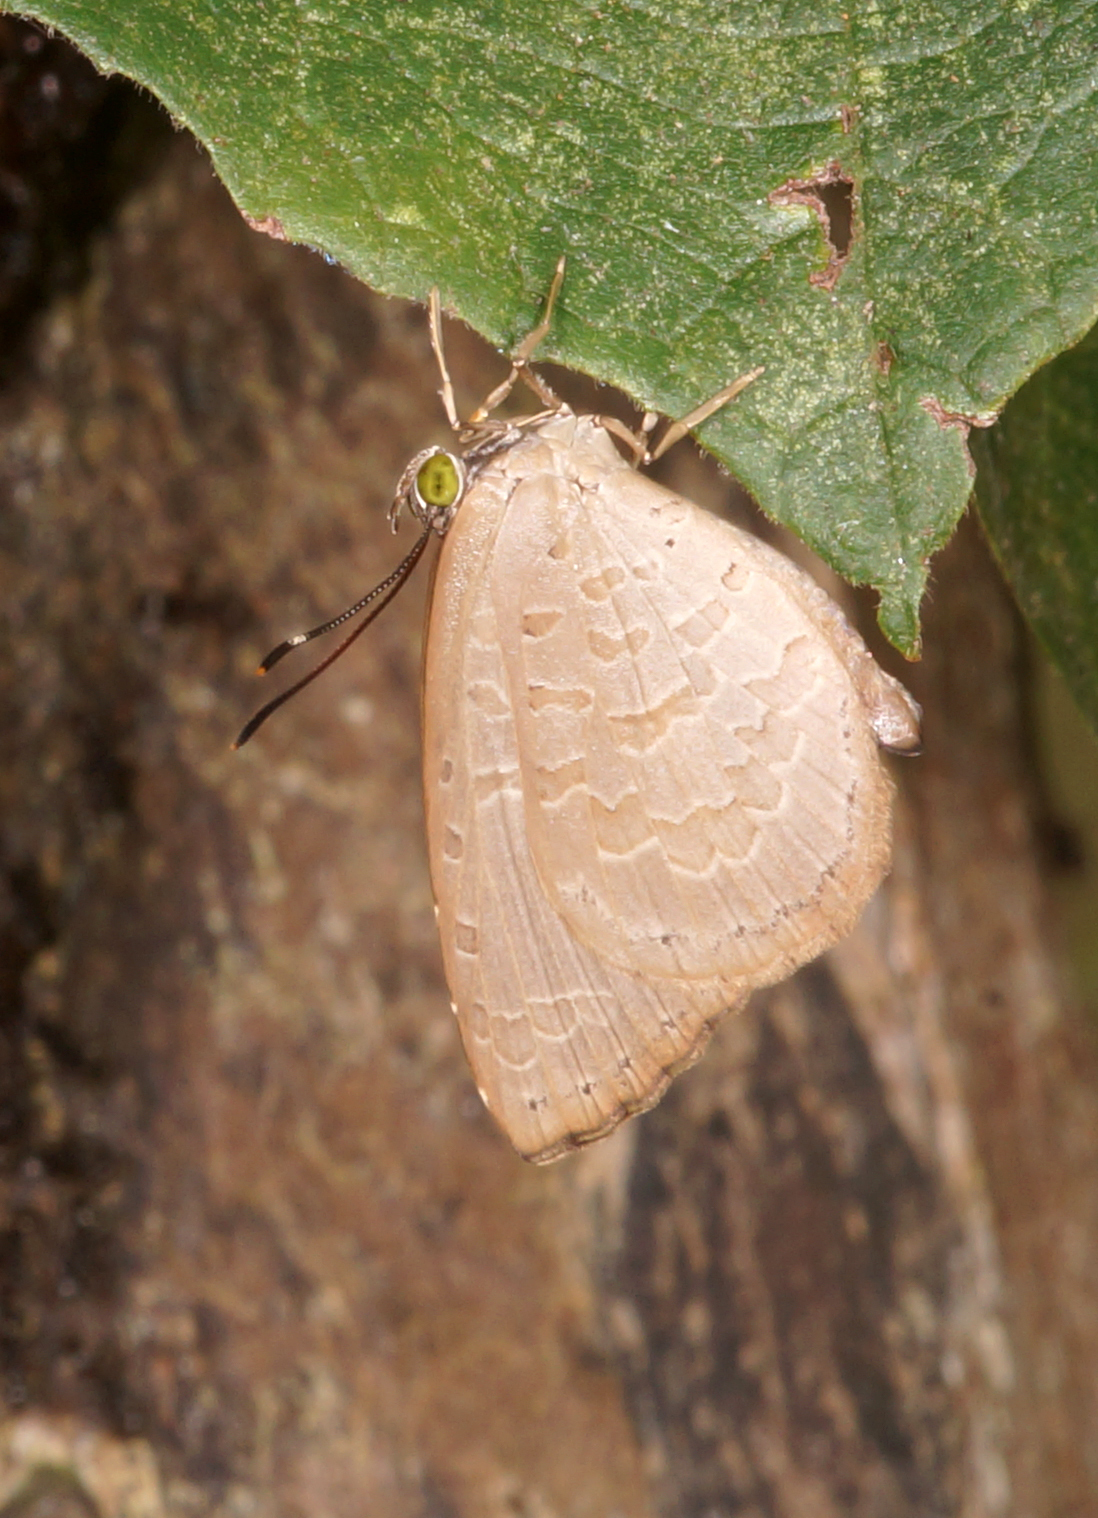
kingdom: Animalia
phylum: Arthropoda
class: Insecta
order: Lepidoptera
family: Lycaenidae
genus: Miletus
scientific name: Miletus chinensis
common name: Common brownie
